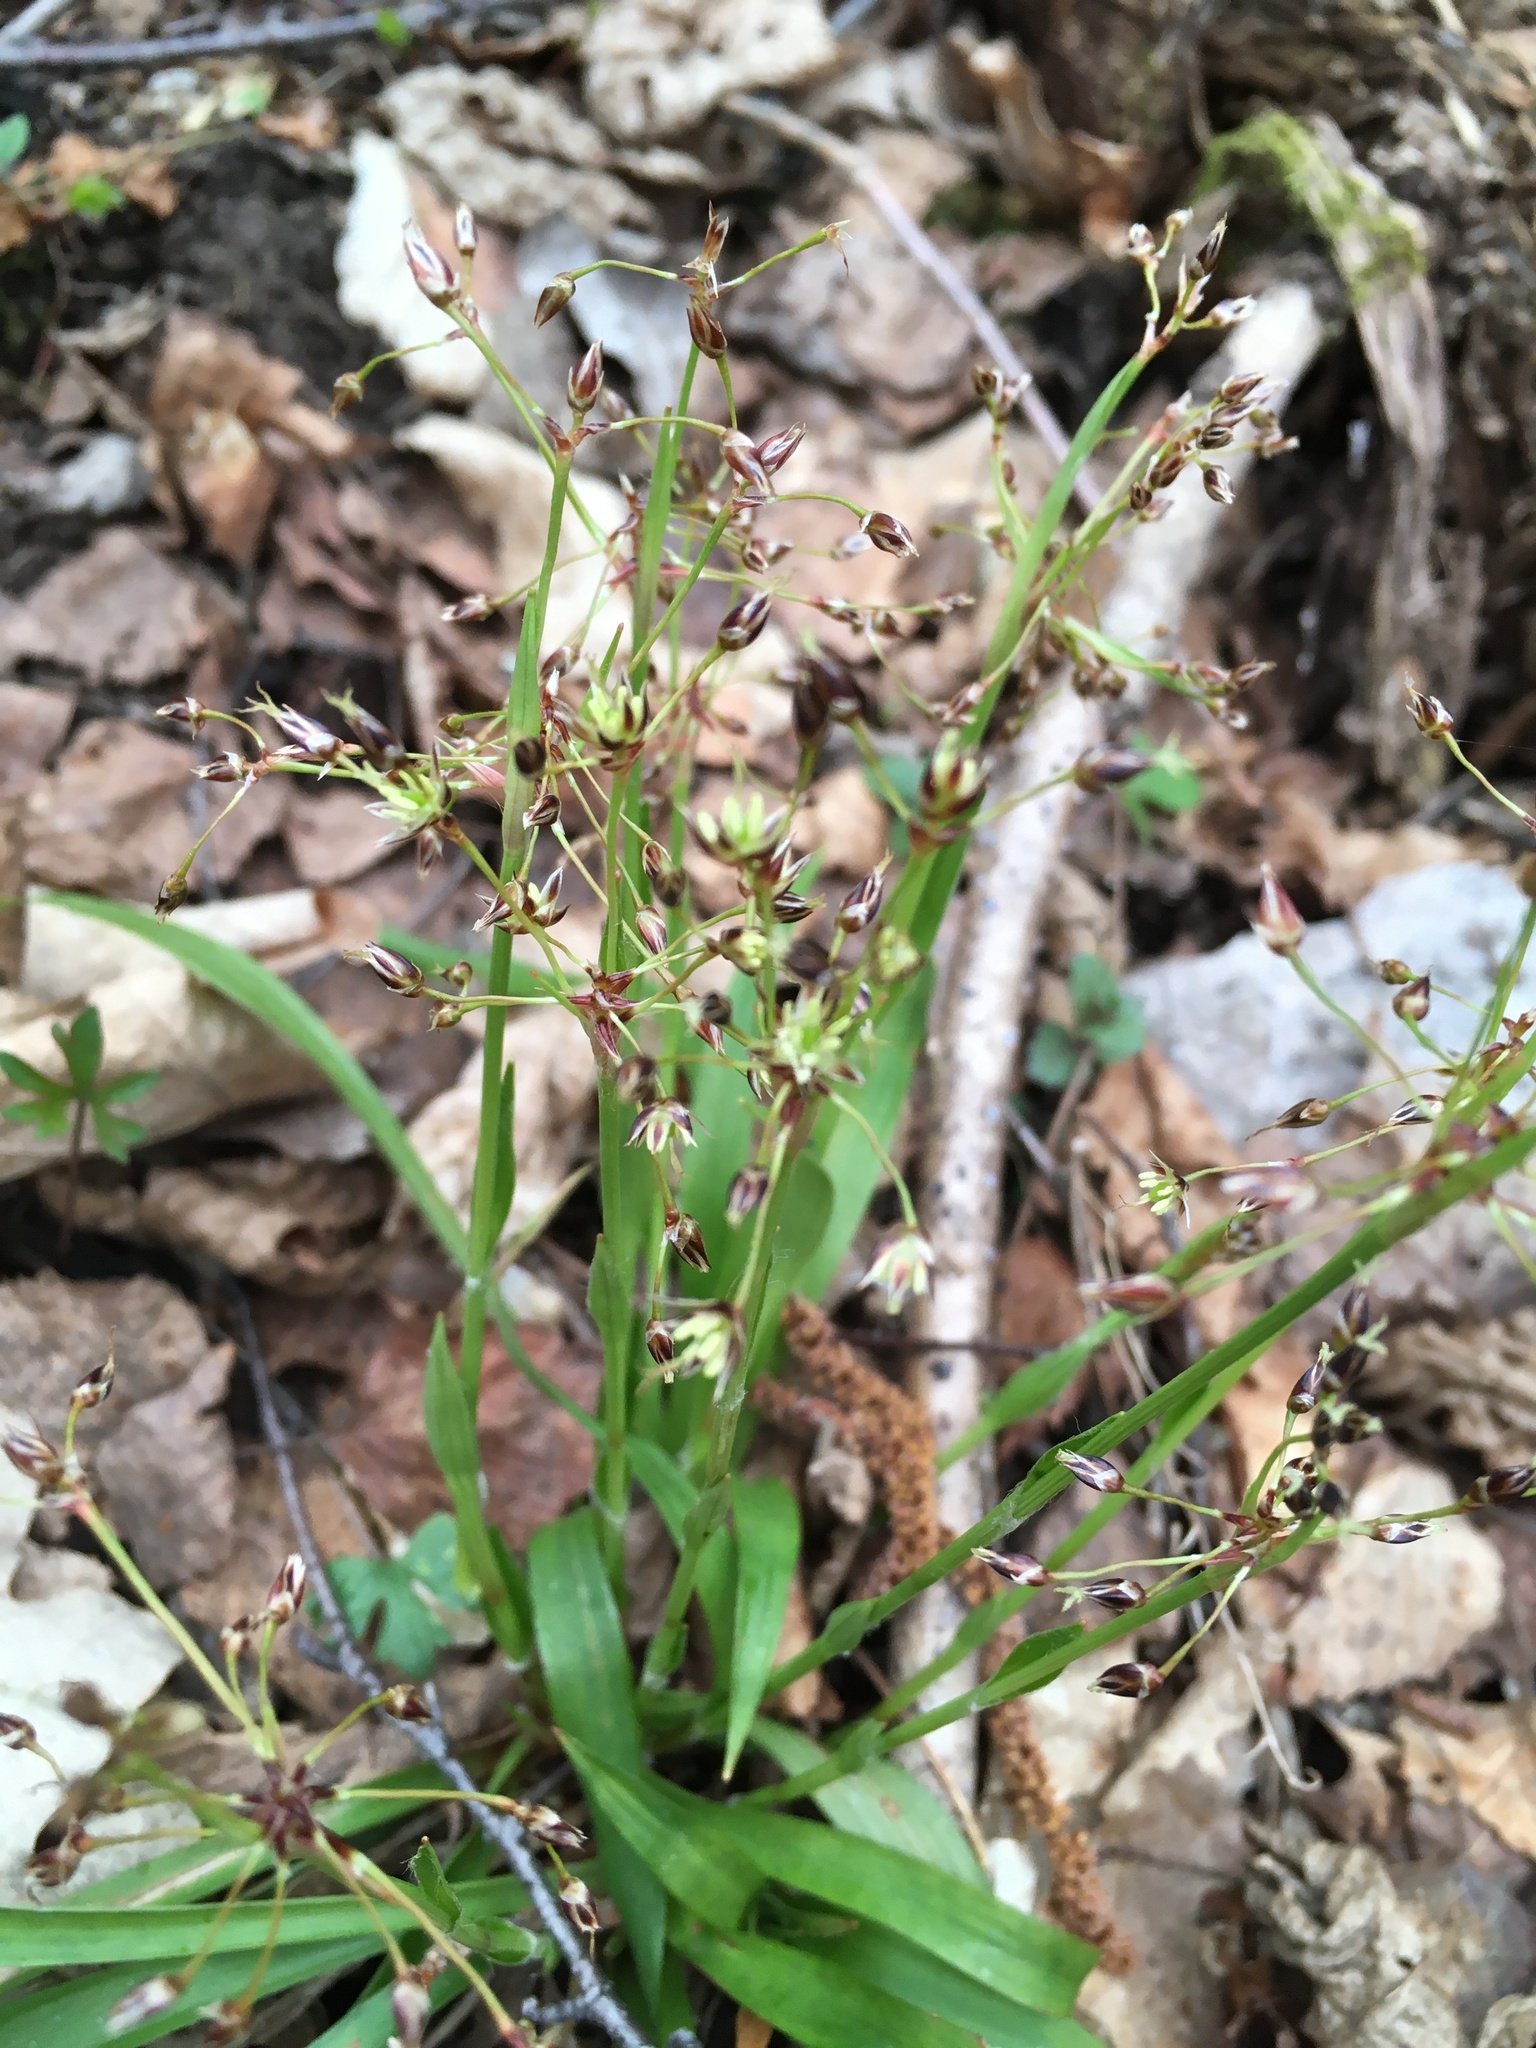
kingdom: Plantae
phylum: Tracheophyta
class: Liliopsida
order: Poales
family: Juncaceae
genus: Luzula
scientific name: Luzula pilosa
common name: Hairy wood-rush
